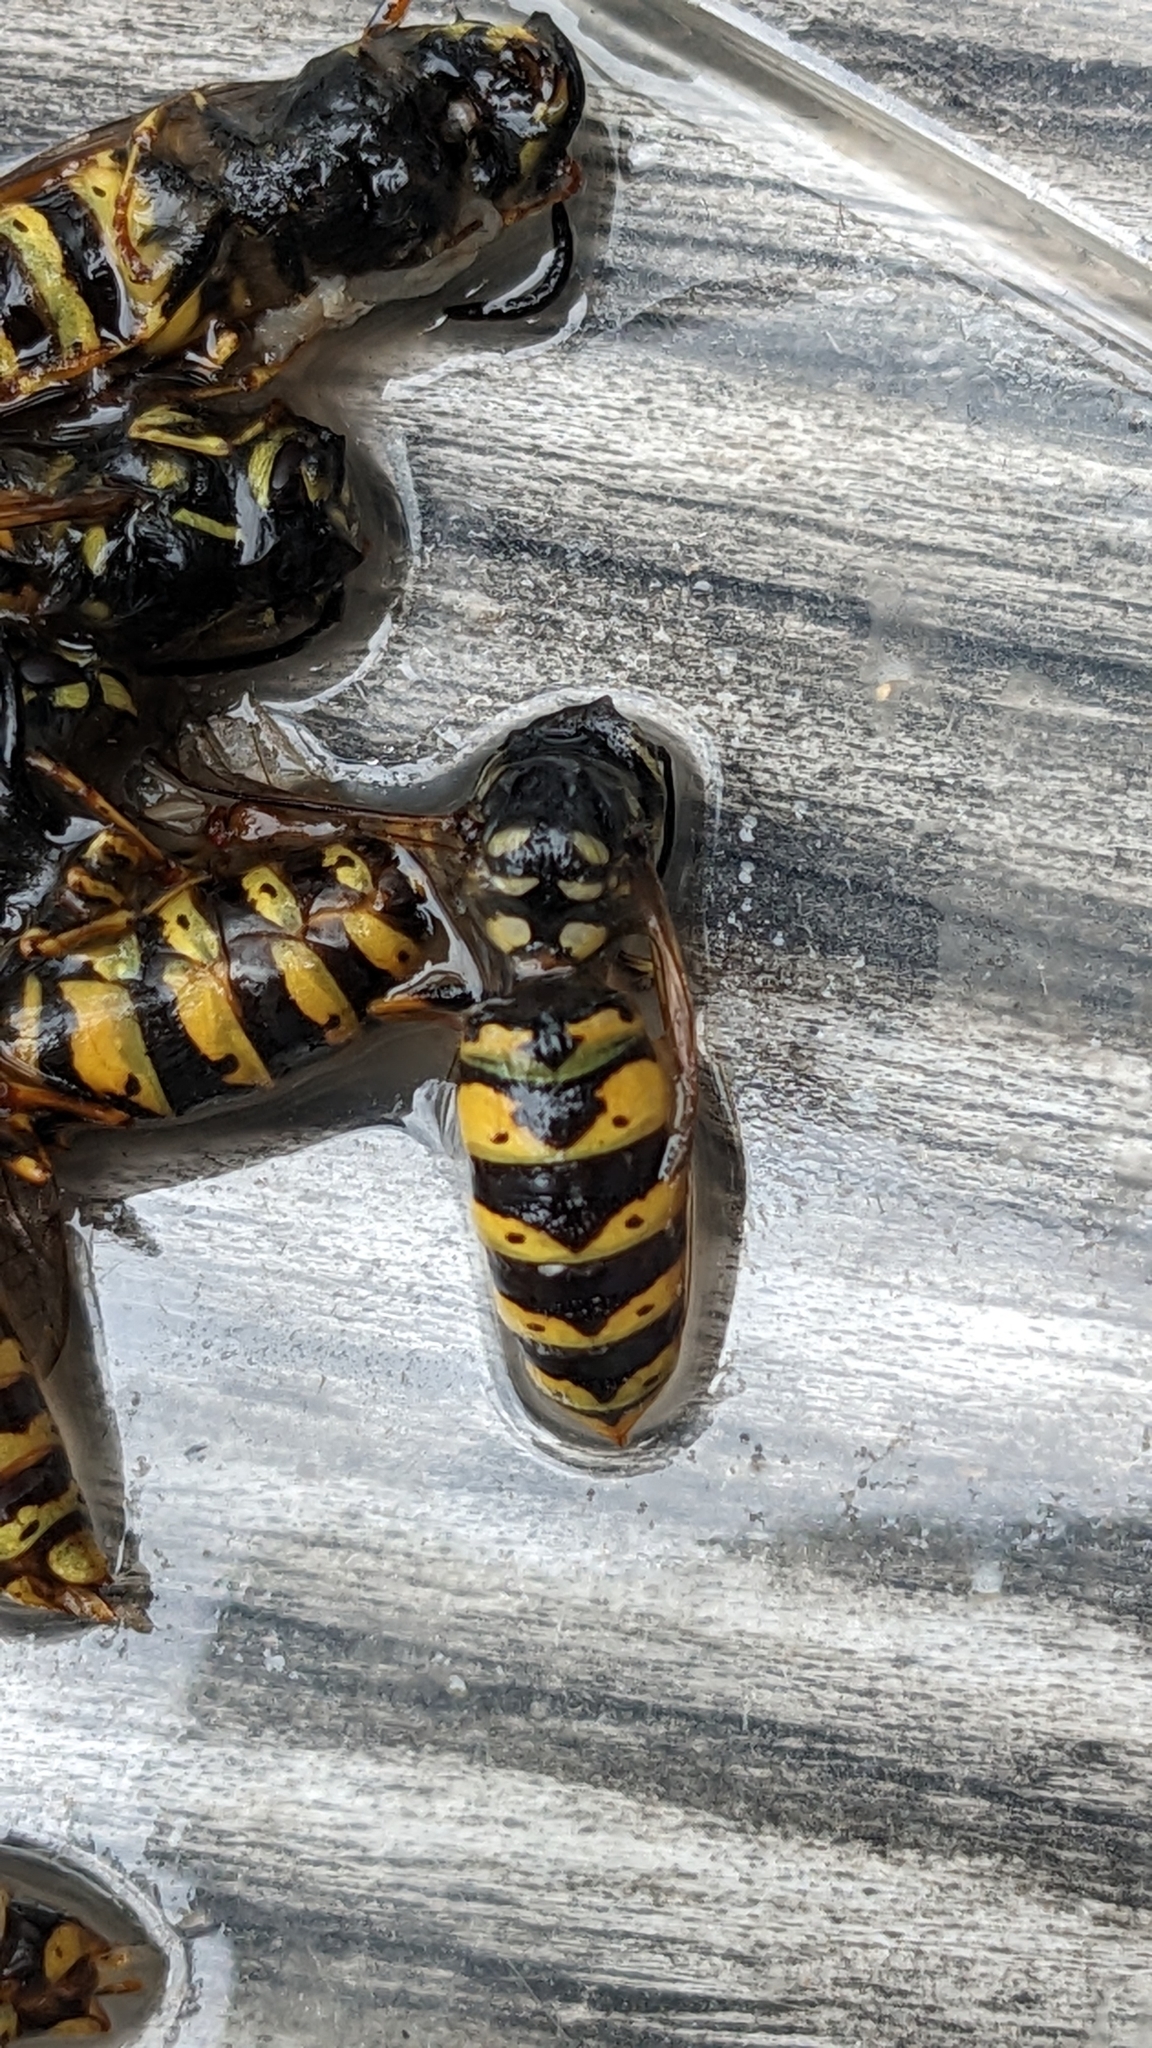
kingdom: Animalia
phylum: Arthropoda
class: Insecta
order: Hymenoptera
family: Vespidae
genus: Vespula
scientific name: Vespula vulgaris
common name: Common wasp
